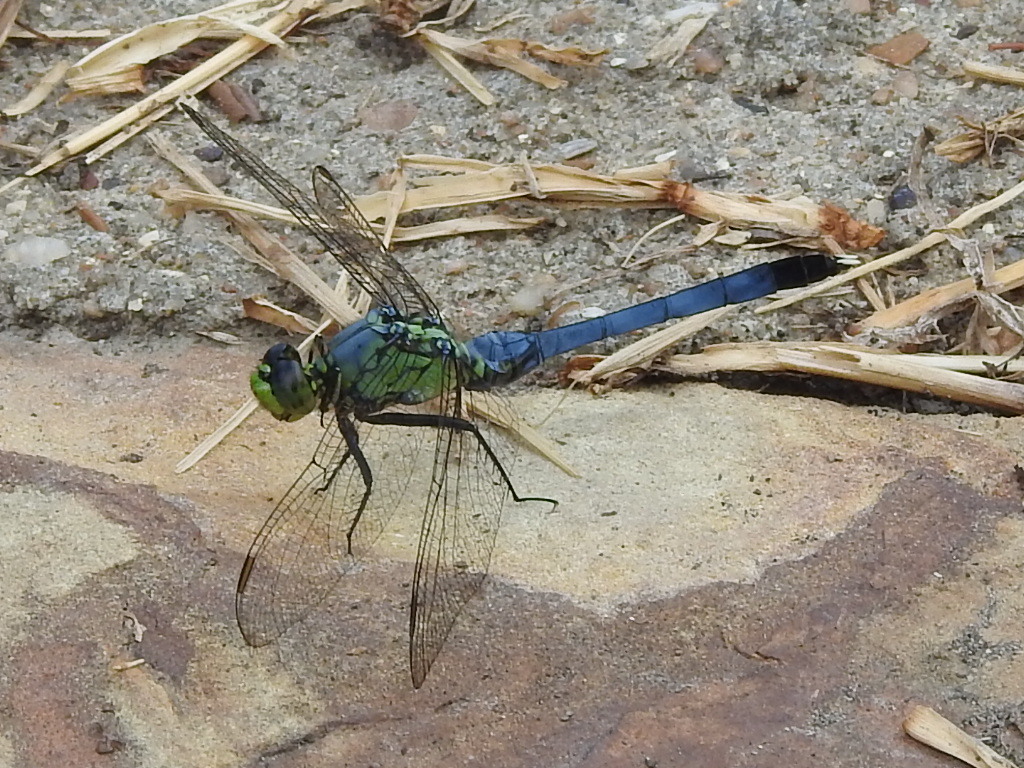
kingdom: Animalia
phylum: Arthropoda
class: Insecta
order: Odonata
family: Libellulidae
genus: Erythemis
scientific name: Erythemis simplicicollis
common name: Eastern pondhawk
